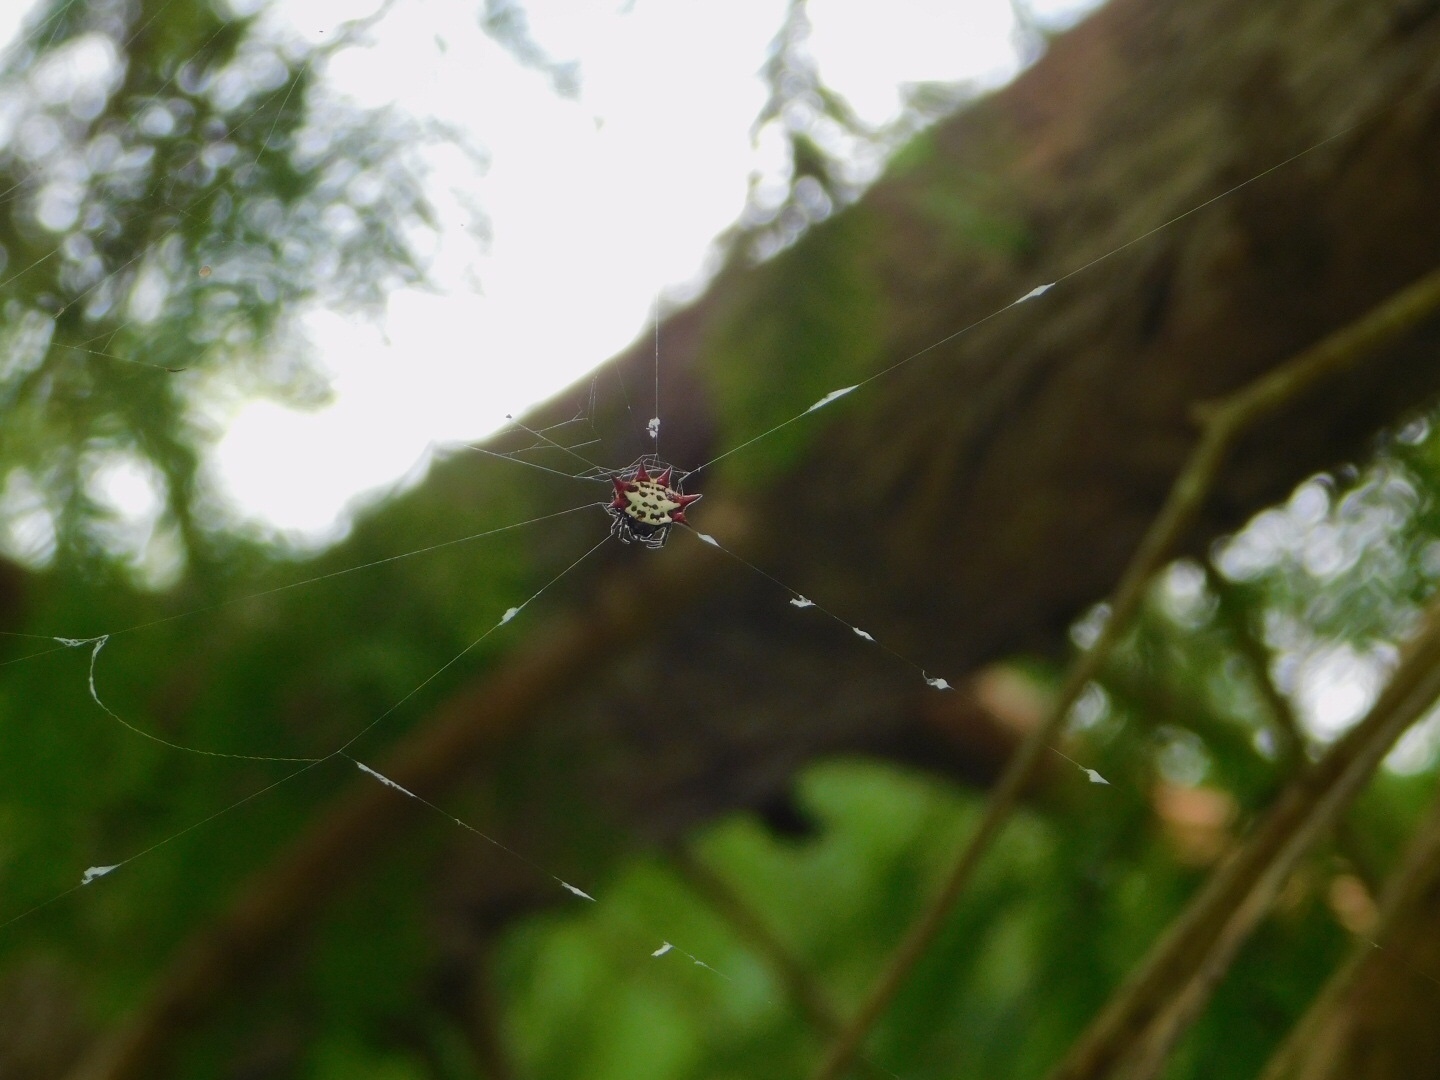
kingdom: Animalia
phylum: Arthropoda
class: Arachnida
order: Araneae
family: Araneidae
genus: Gasteracantha
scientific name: Gasteracantha cancriformis
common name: Orb weavers
